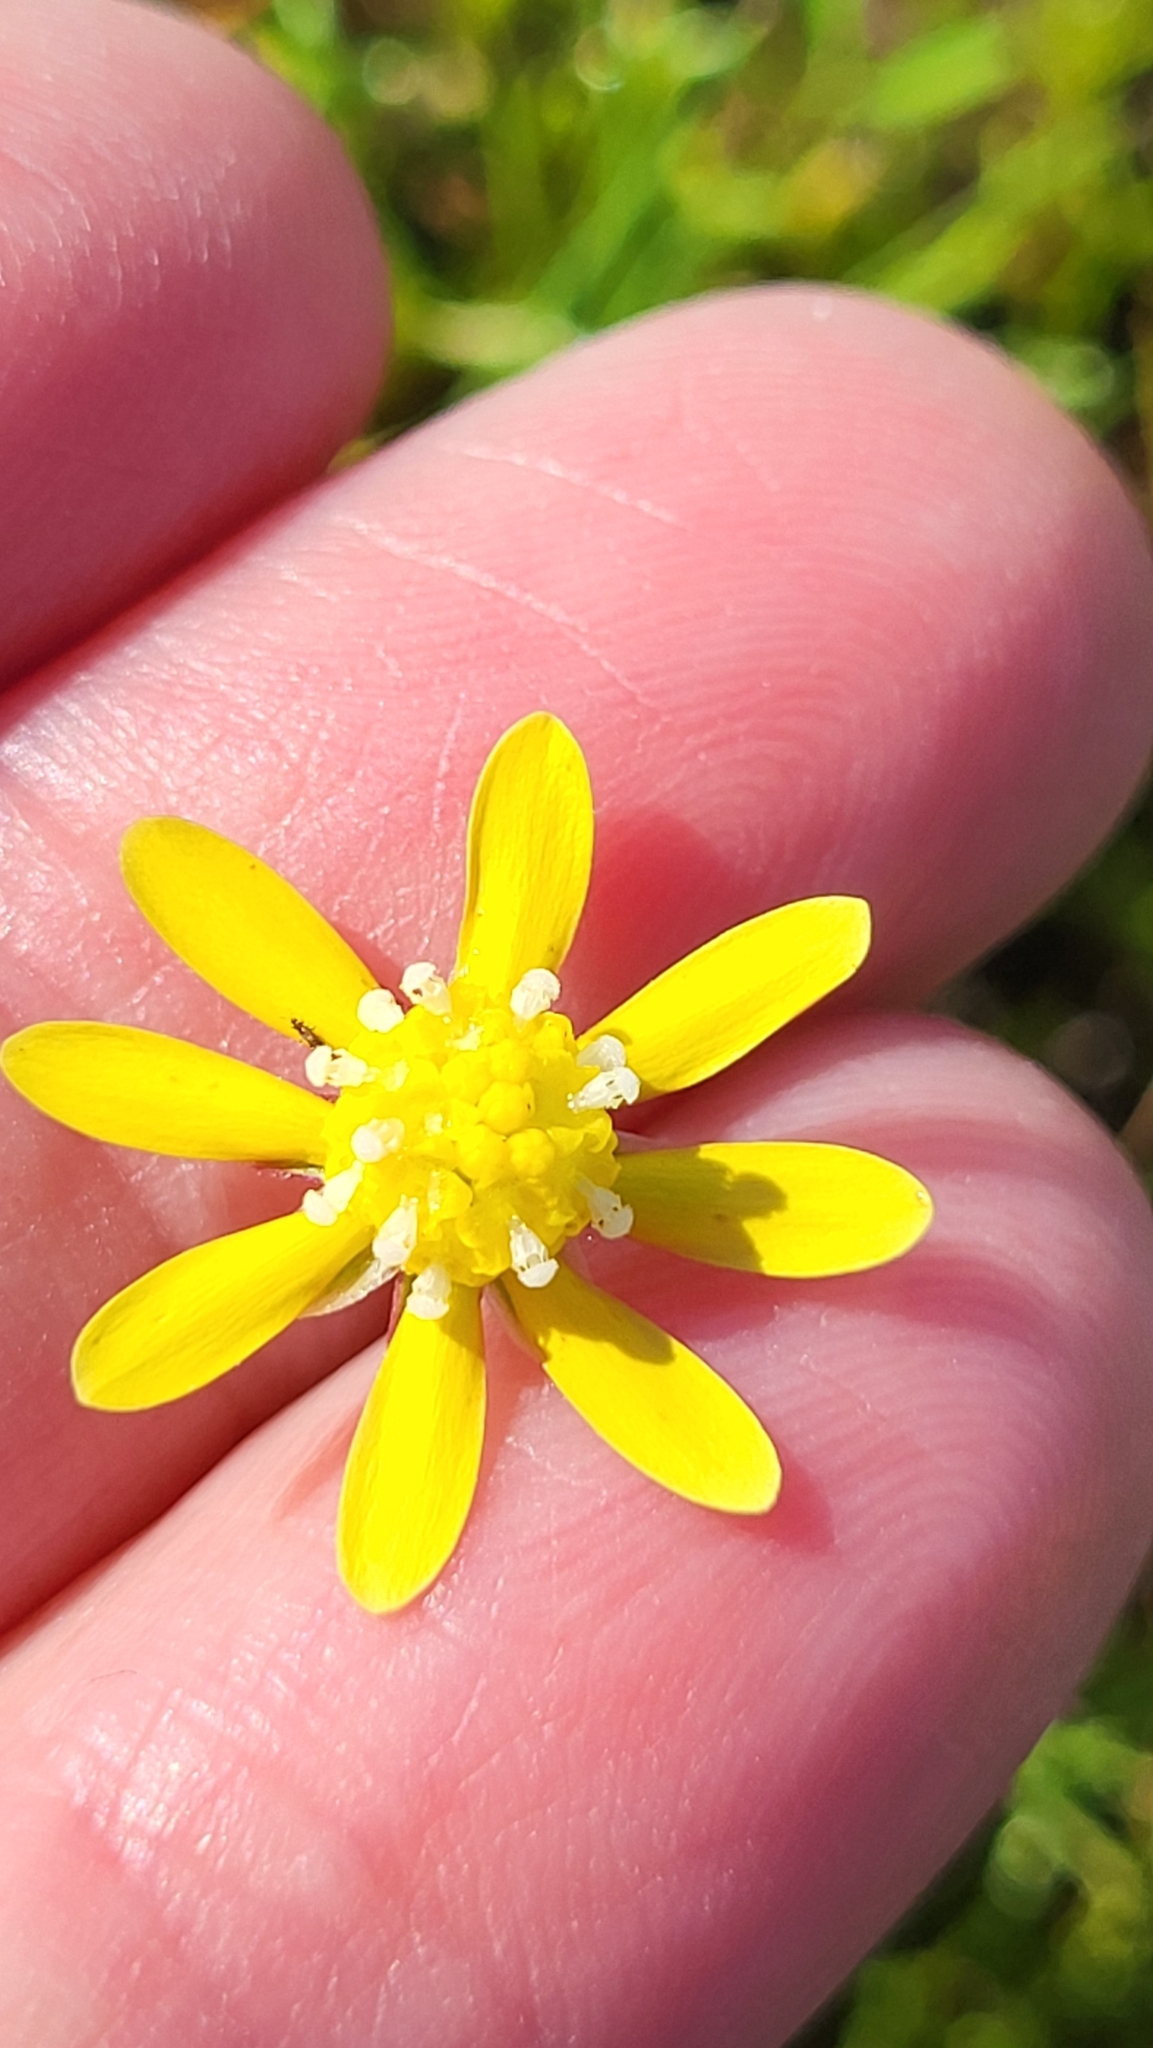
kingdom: Plantae
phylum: Tracheophyta
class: Magnoliopsida
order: Asterales
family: Asteraceae
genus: Blennosperma
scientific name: Blennosperma nanum
